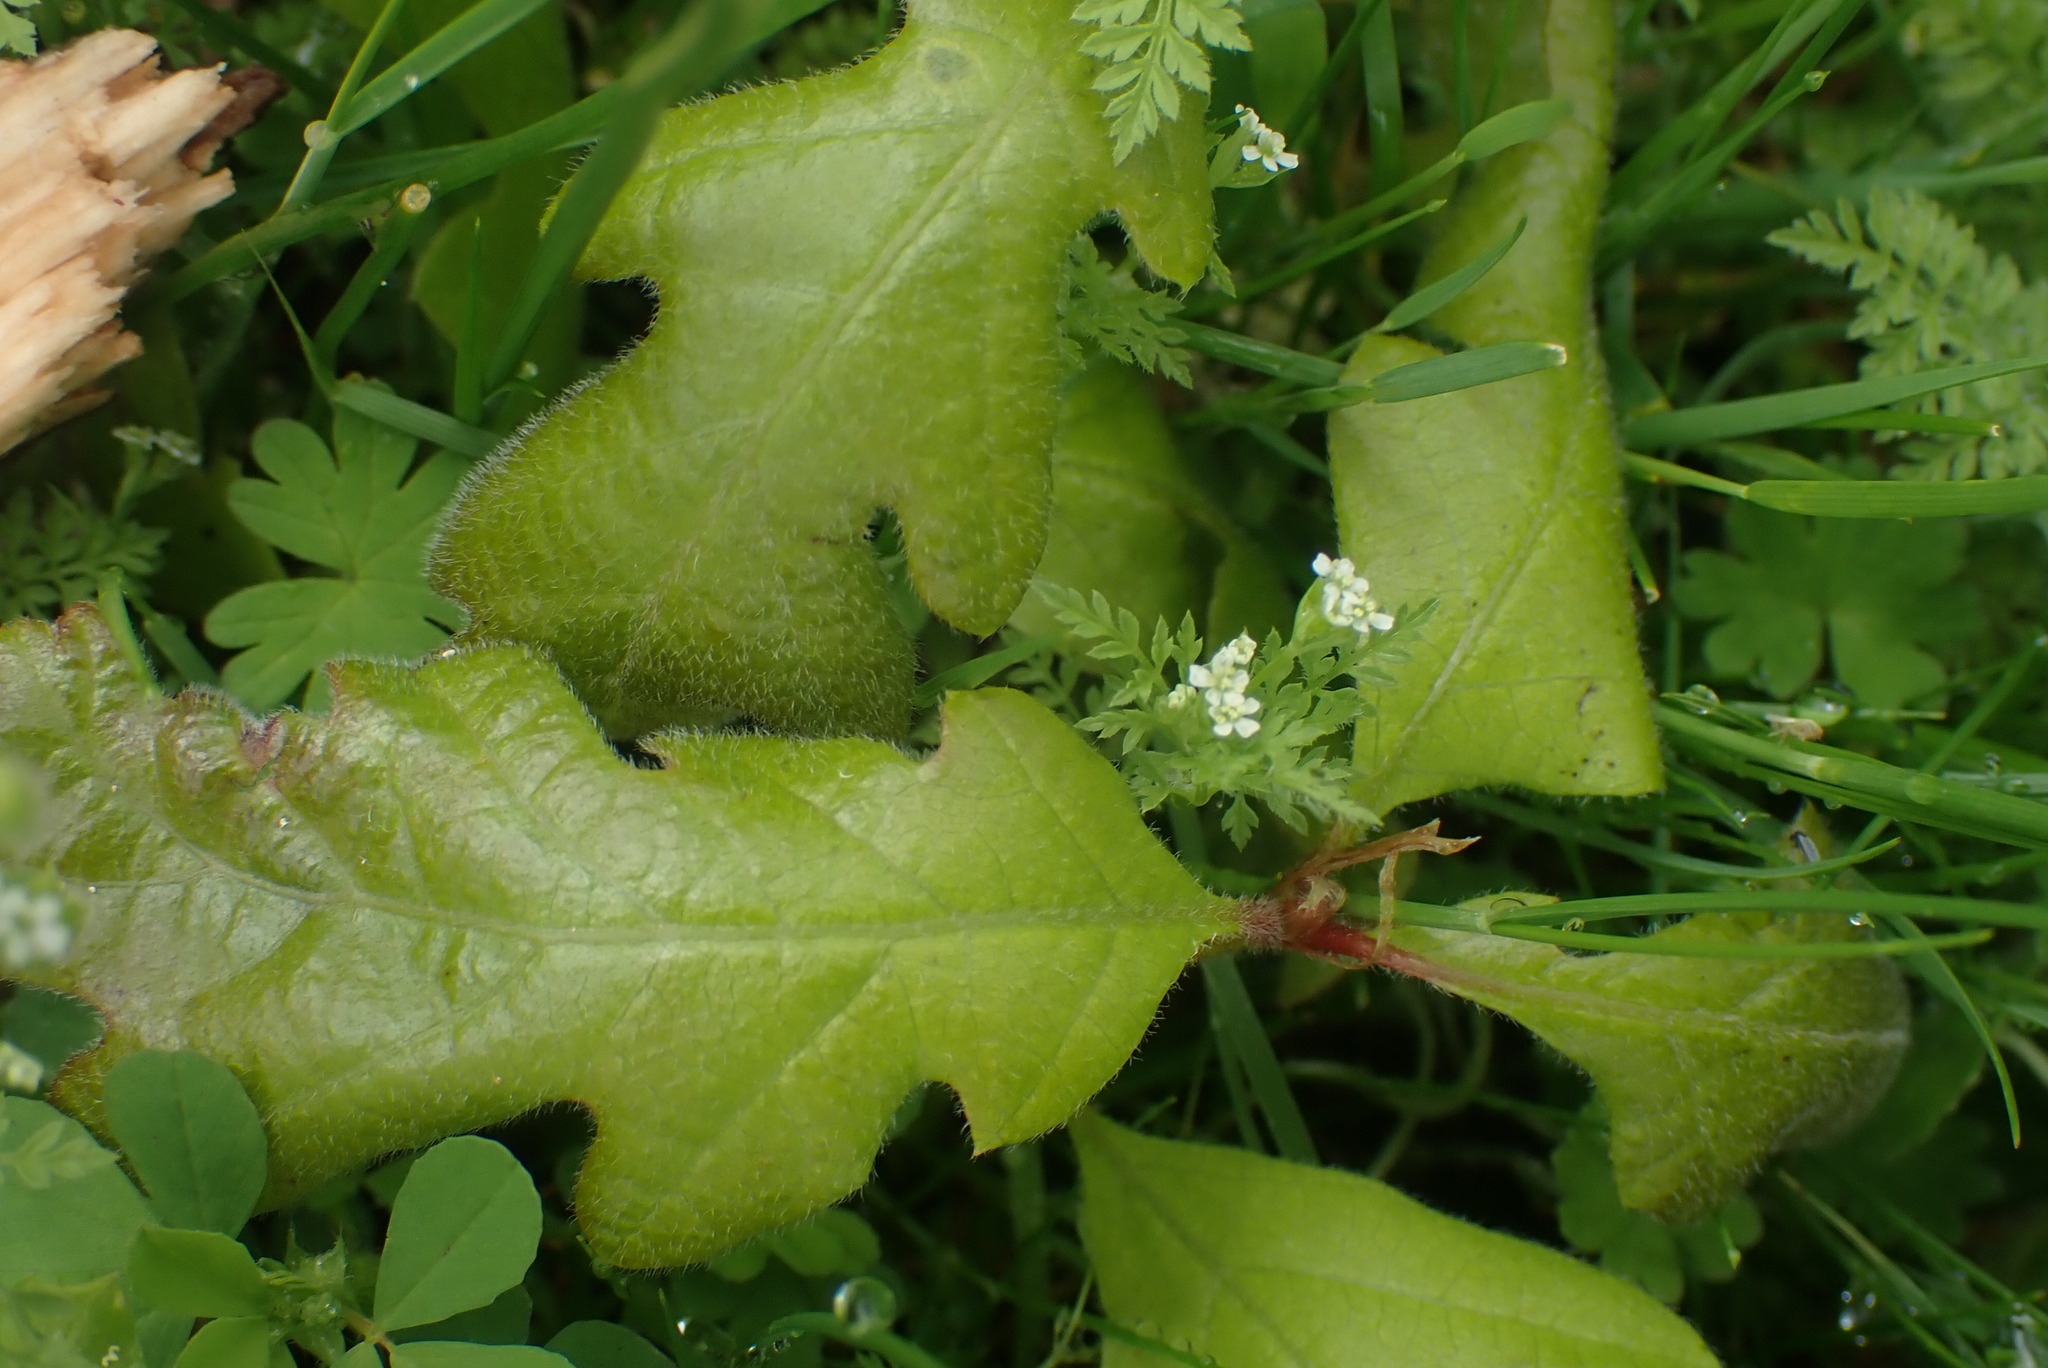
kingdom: Plantae
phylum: Tracheophyta
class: Magnoliopsida
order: Fagales
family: Fagaceae
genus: Quercus
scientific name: Quercus garryana
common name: Garry oak
